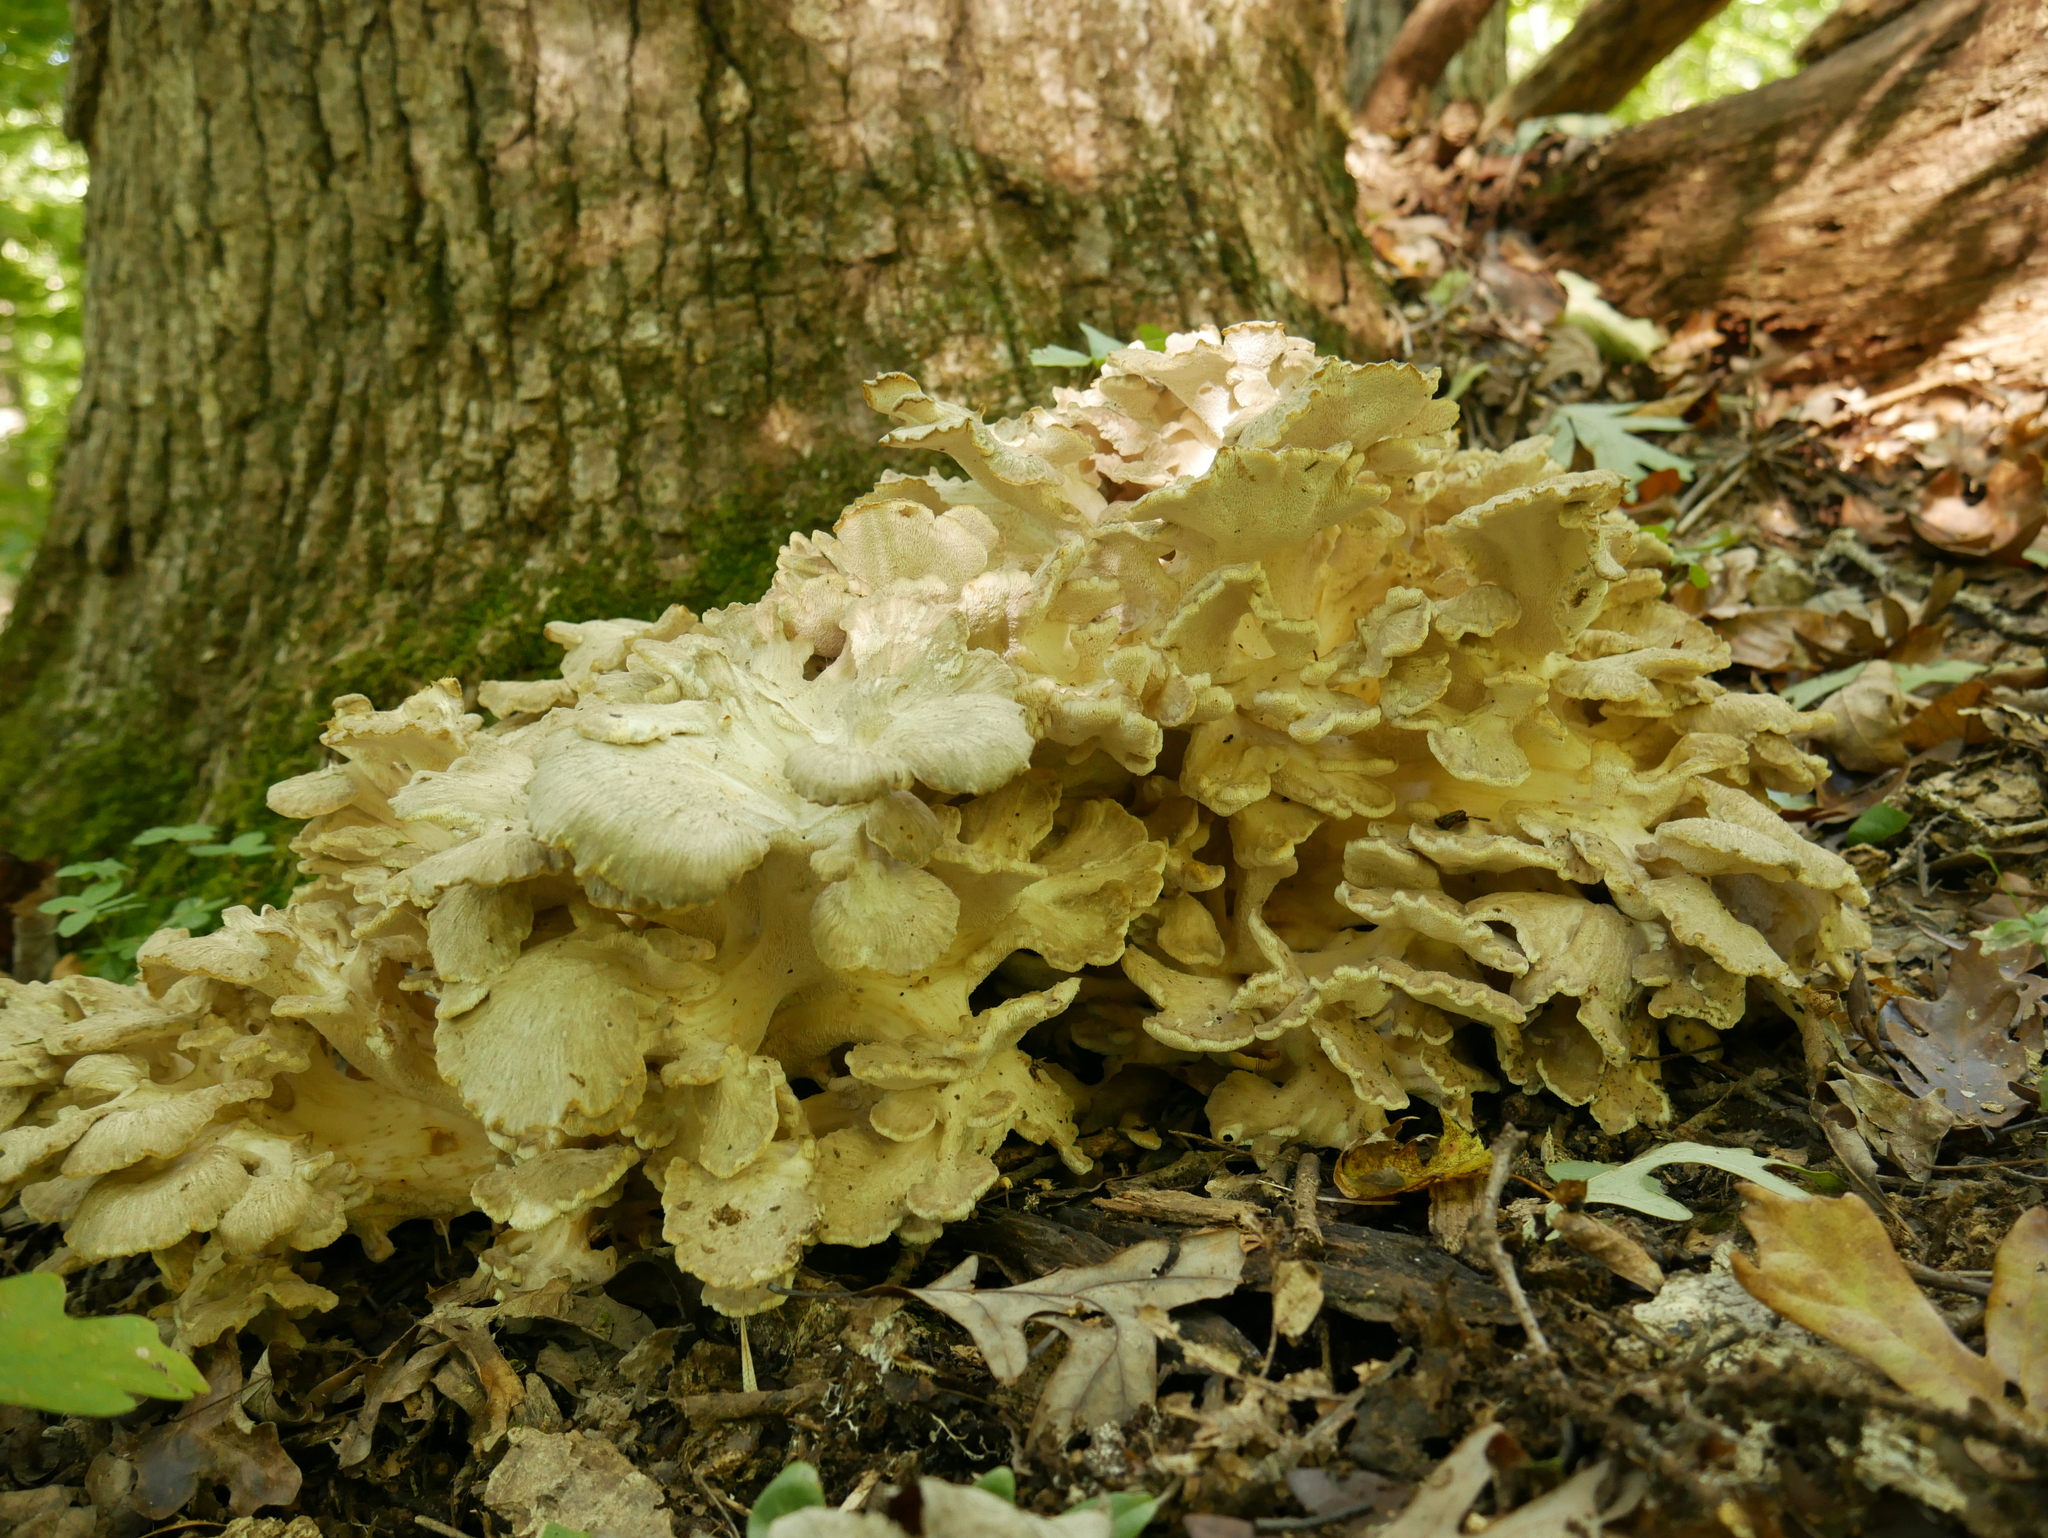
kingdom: Fungi
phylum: Basidiomycota
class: Agaricomycetes
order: Polyporales
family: Grifolaceae
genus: Grifola
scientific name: Grifola frondosa
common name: Hen of the woods
